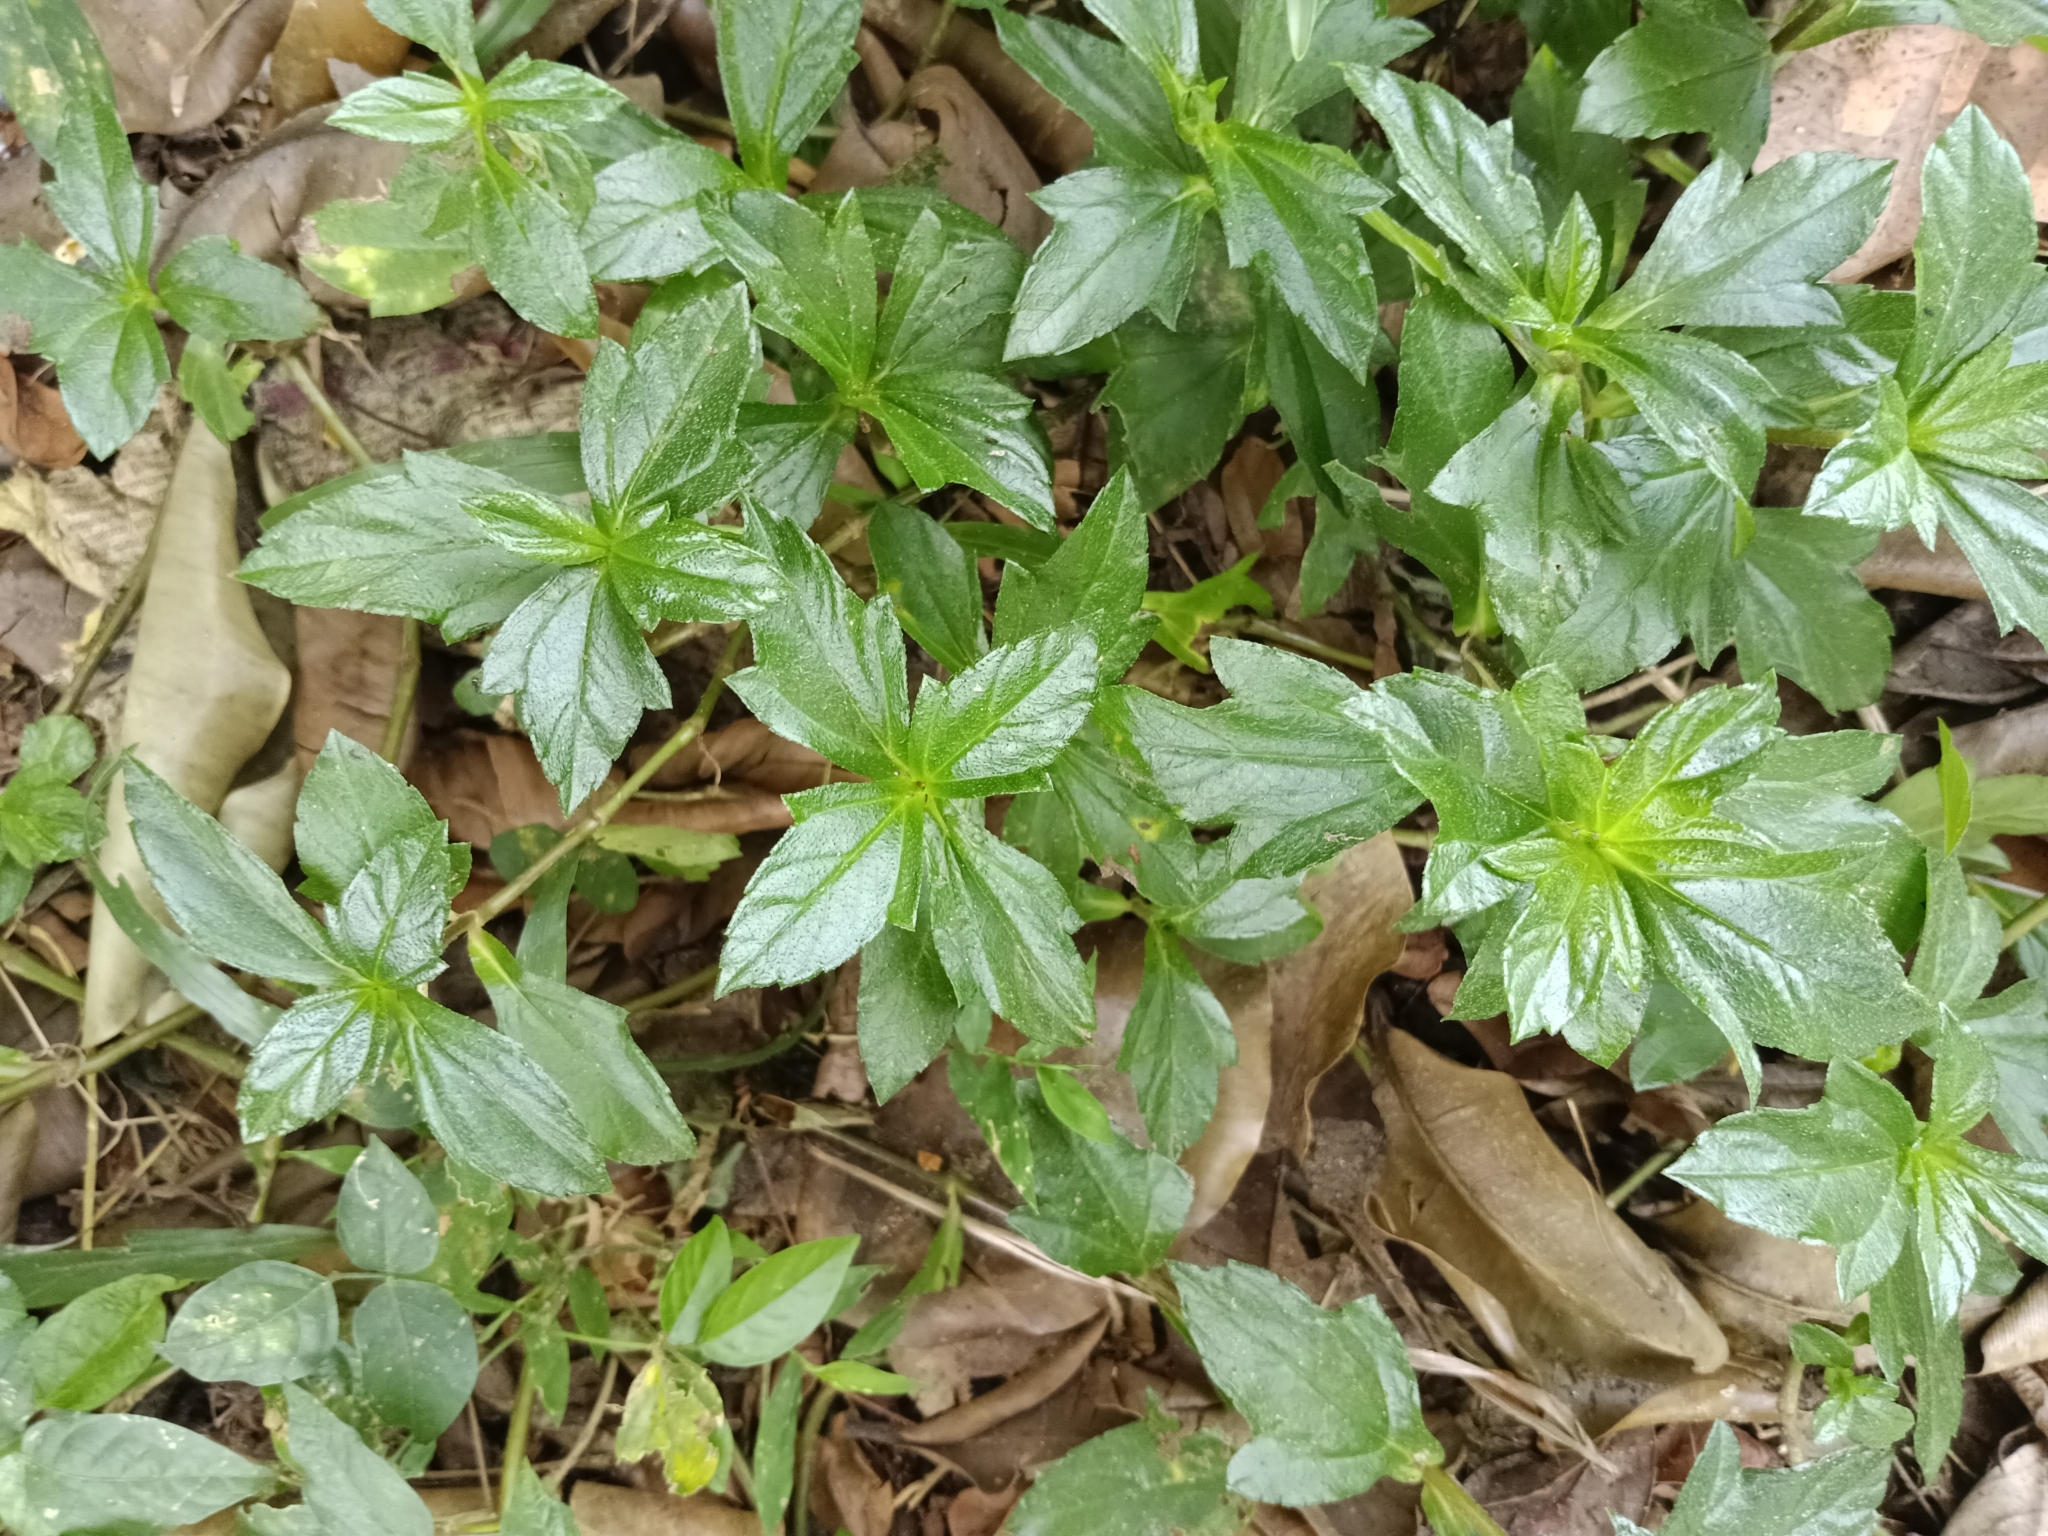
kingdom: Plantae
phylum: Tracheophyta
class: Magnoliopsida
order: Asterales
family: Asteraceae
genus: Sphagneticola
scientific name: Sphagneticola trilobata
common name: Bay biscayne creeping-oxeye
